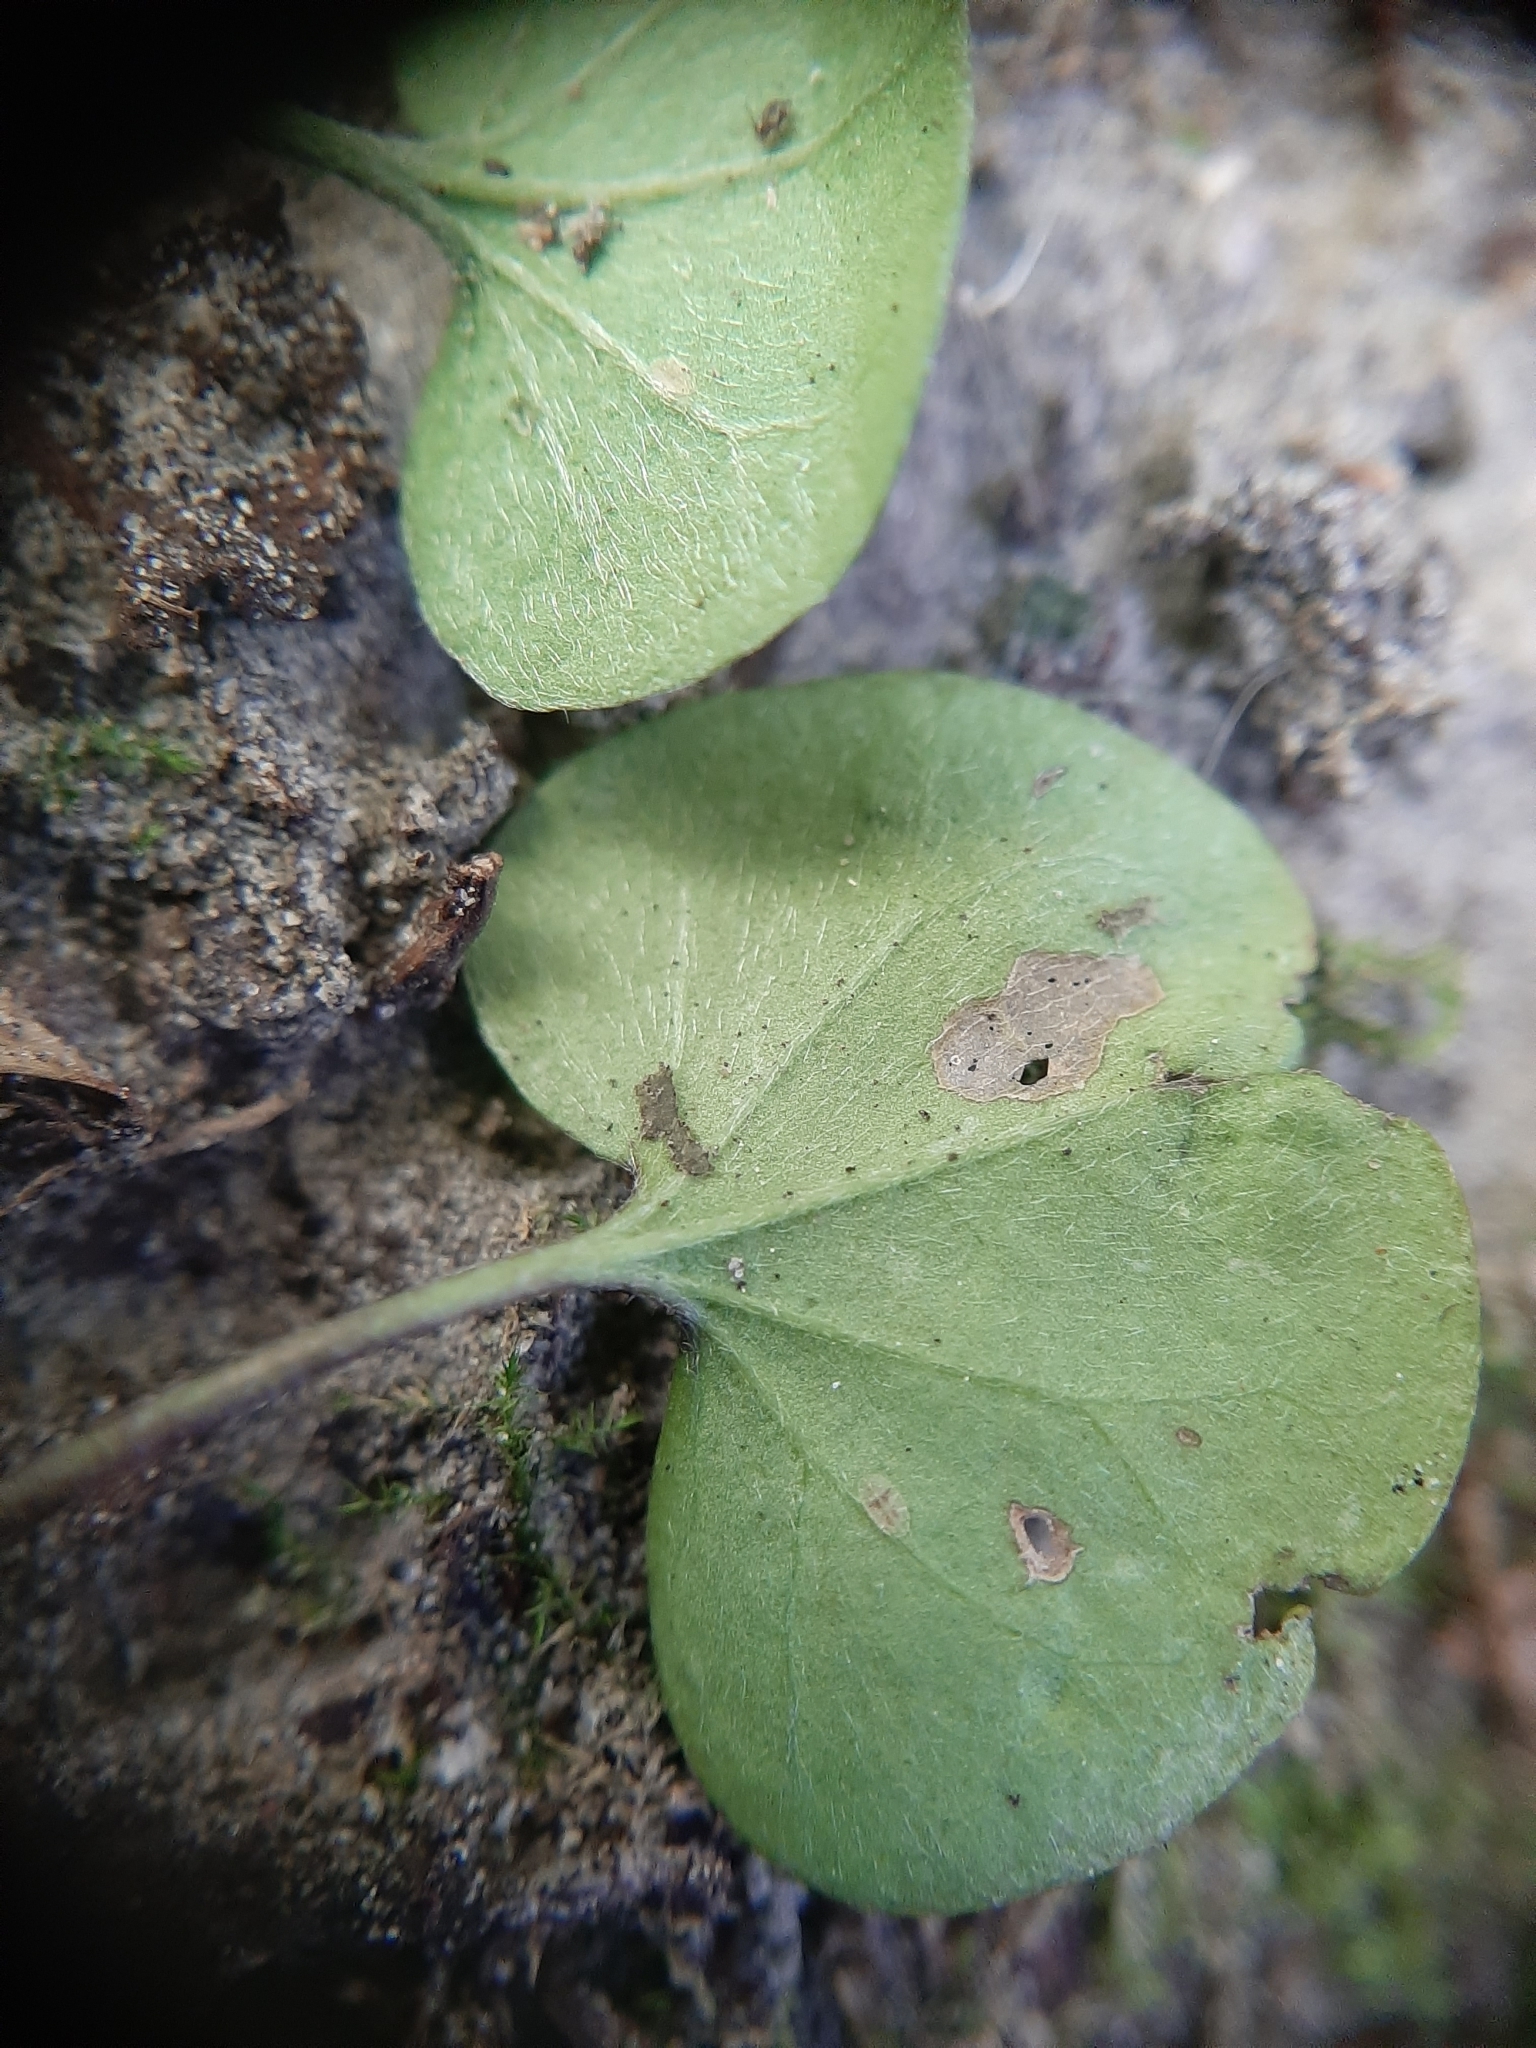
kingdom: Plantae
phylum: Tracheophyta
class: Magnoliopsida
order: Solanales
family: Convolvulaceae
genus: Dichondra
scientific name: Dichondra micrantha
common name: Kidneyweed
